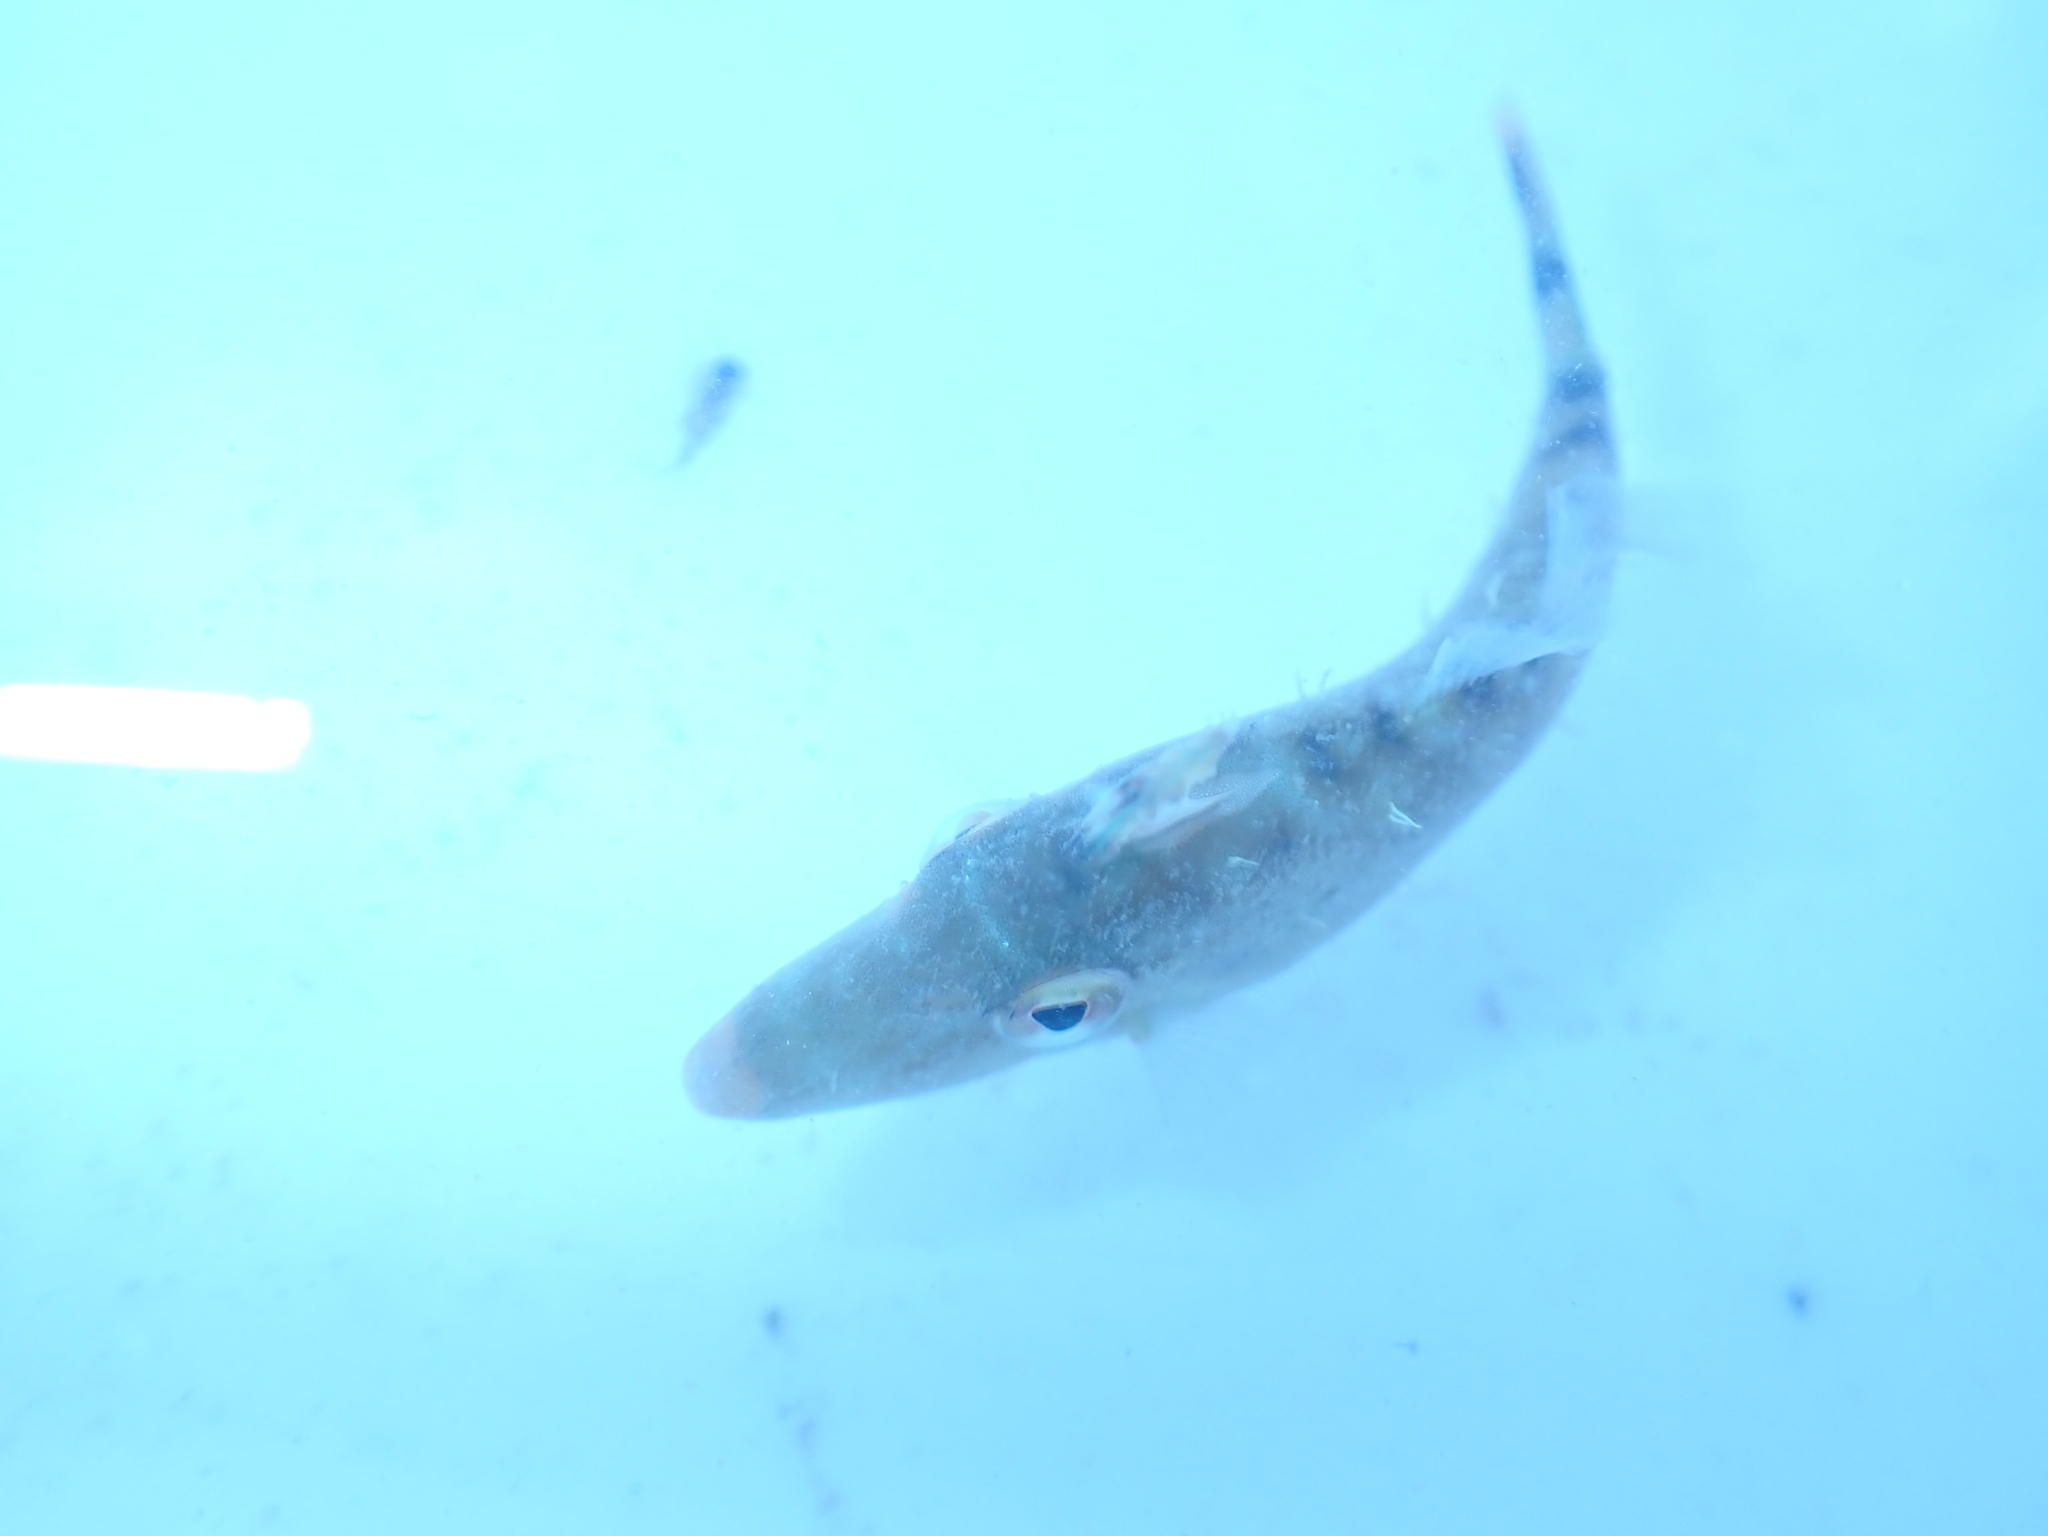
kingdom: Animalia
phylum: Chordata
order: Tetraodontiformes
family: Monacanthidae
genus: Meuschenia
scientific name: Meuschenia hippocrepis
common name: Horse-shoe leatherjacket
